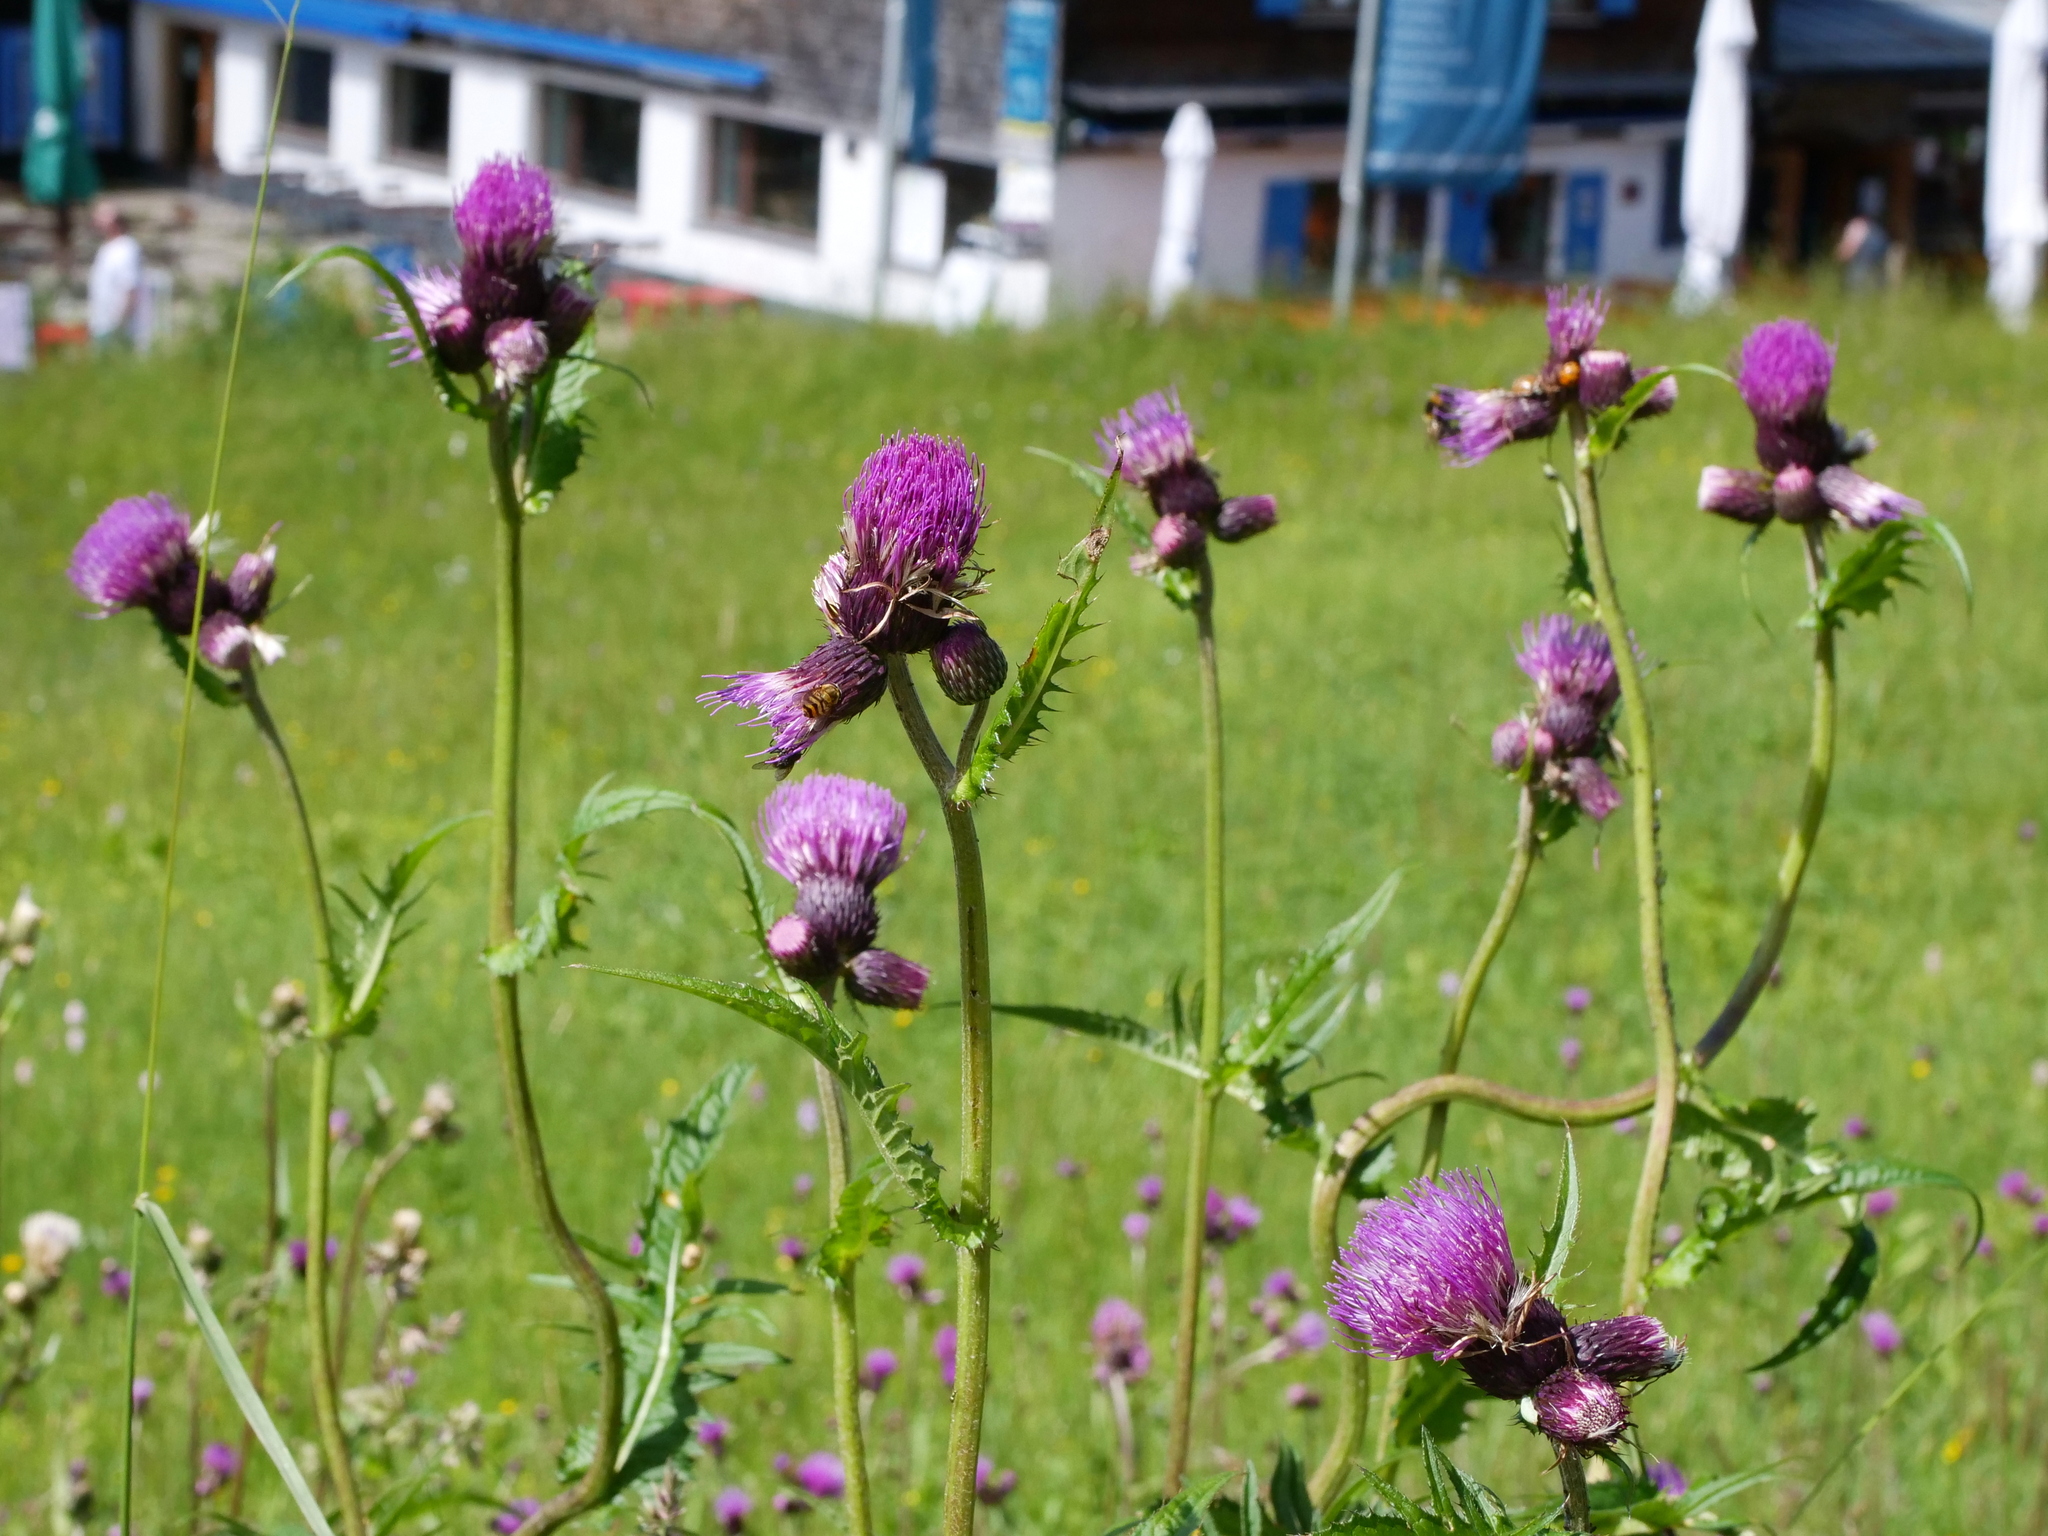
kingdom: Plantae
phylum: Tracheophyta
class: Magnoliopsida
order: Asterales
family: Asteraceae
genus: Cirsium
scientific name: Cirsium rivulare
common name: Brook thistle
